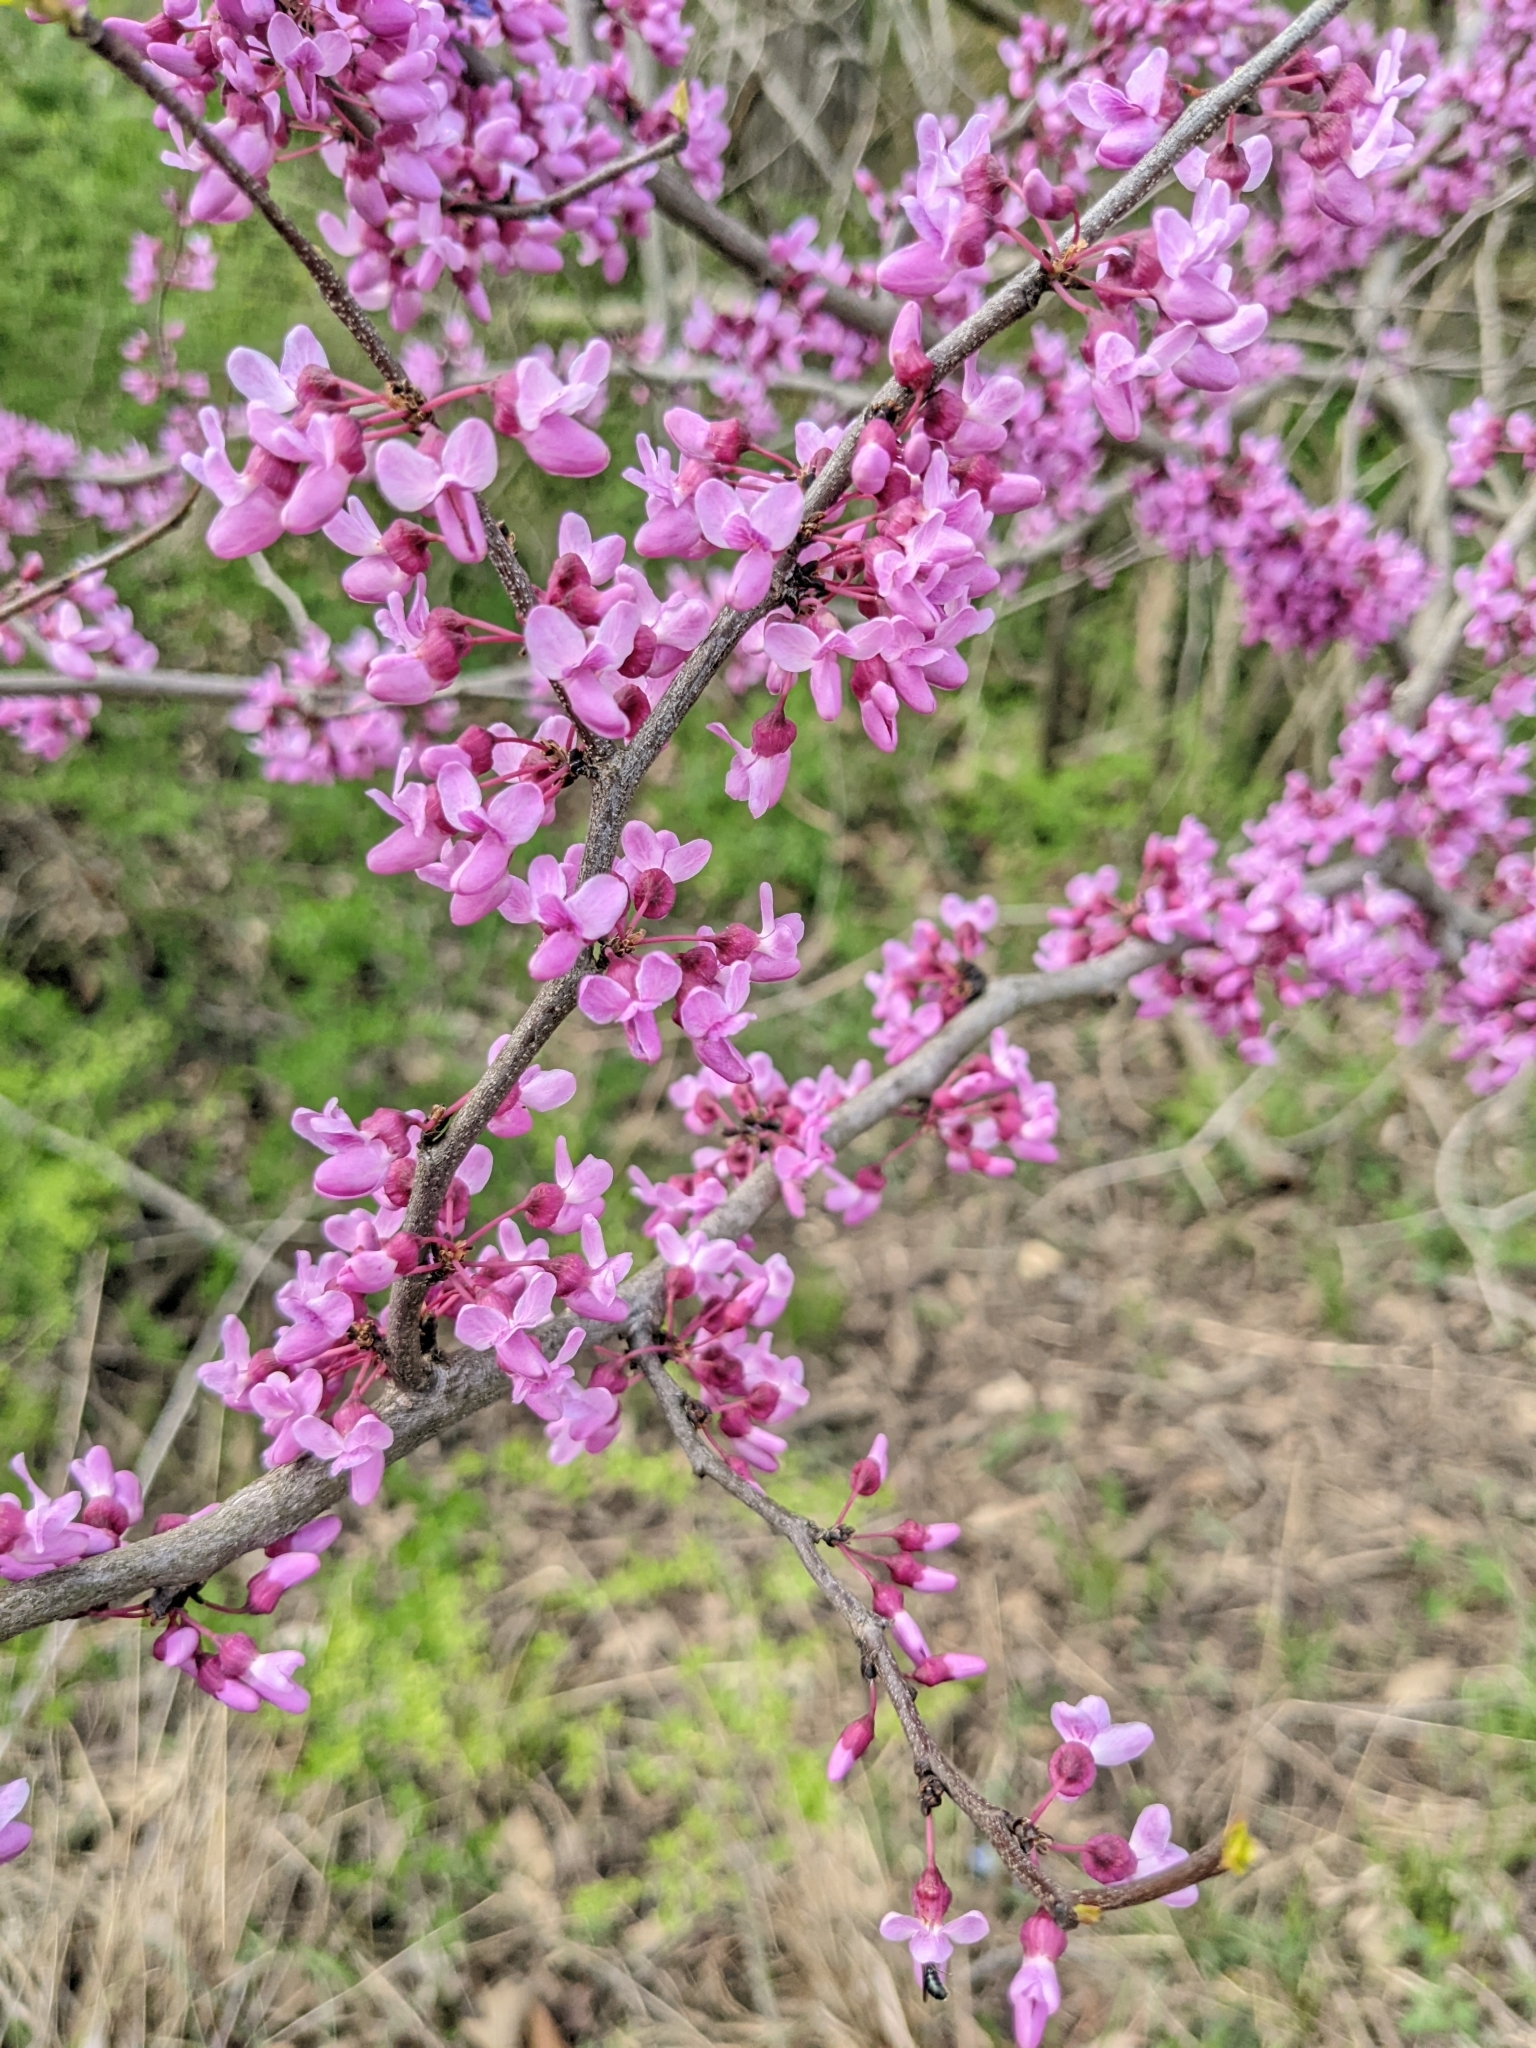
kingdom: Plantae
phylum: Tracheophyta
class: Magnoliopsida
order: Fabales
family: Fabaceae
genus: Cercis
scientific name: Cercis canadensis
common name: Eastern redbud
